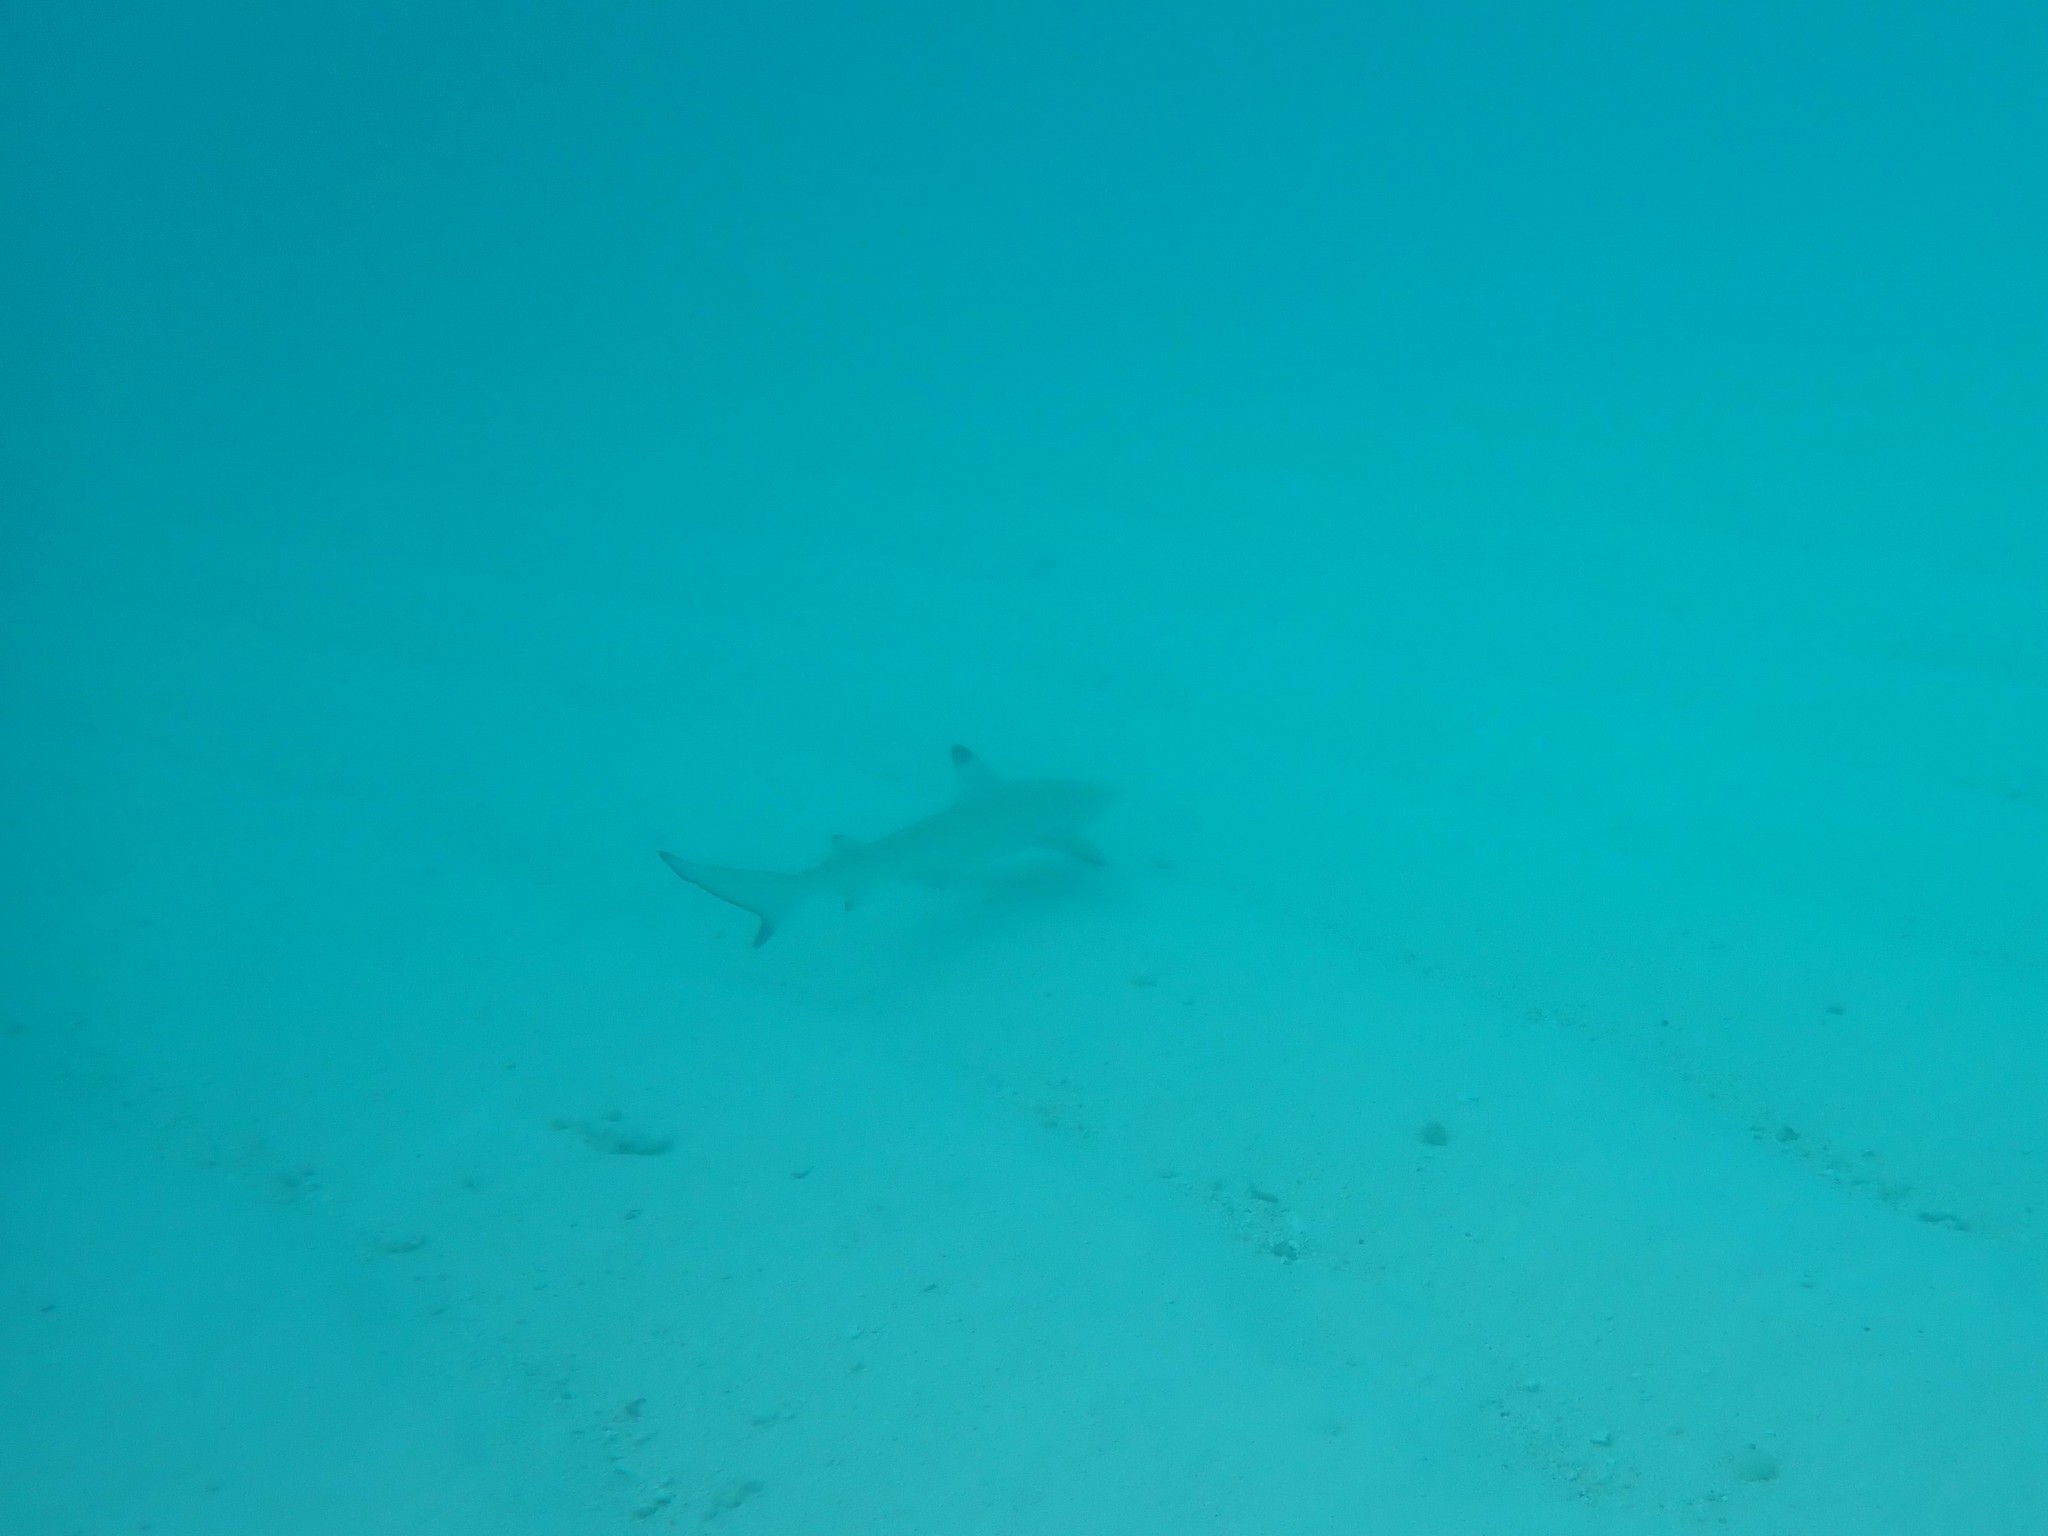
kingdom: Animalia
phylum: Chordata
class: Elasmobranchii
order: Carcharhiniformes
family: Carcharhinidae
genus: Carcharhinus
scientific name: Carcharhinus melanopterus
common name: Blacktip reef shark
